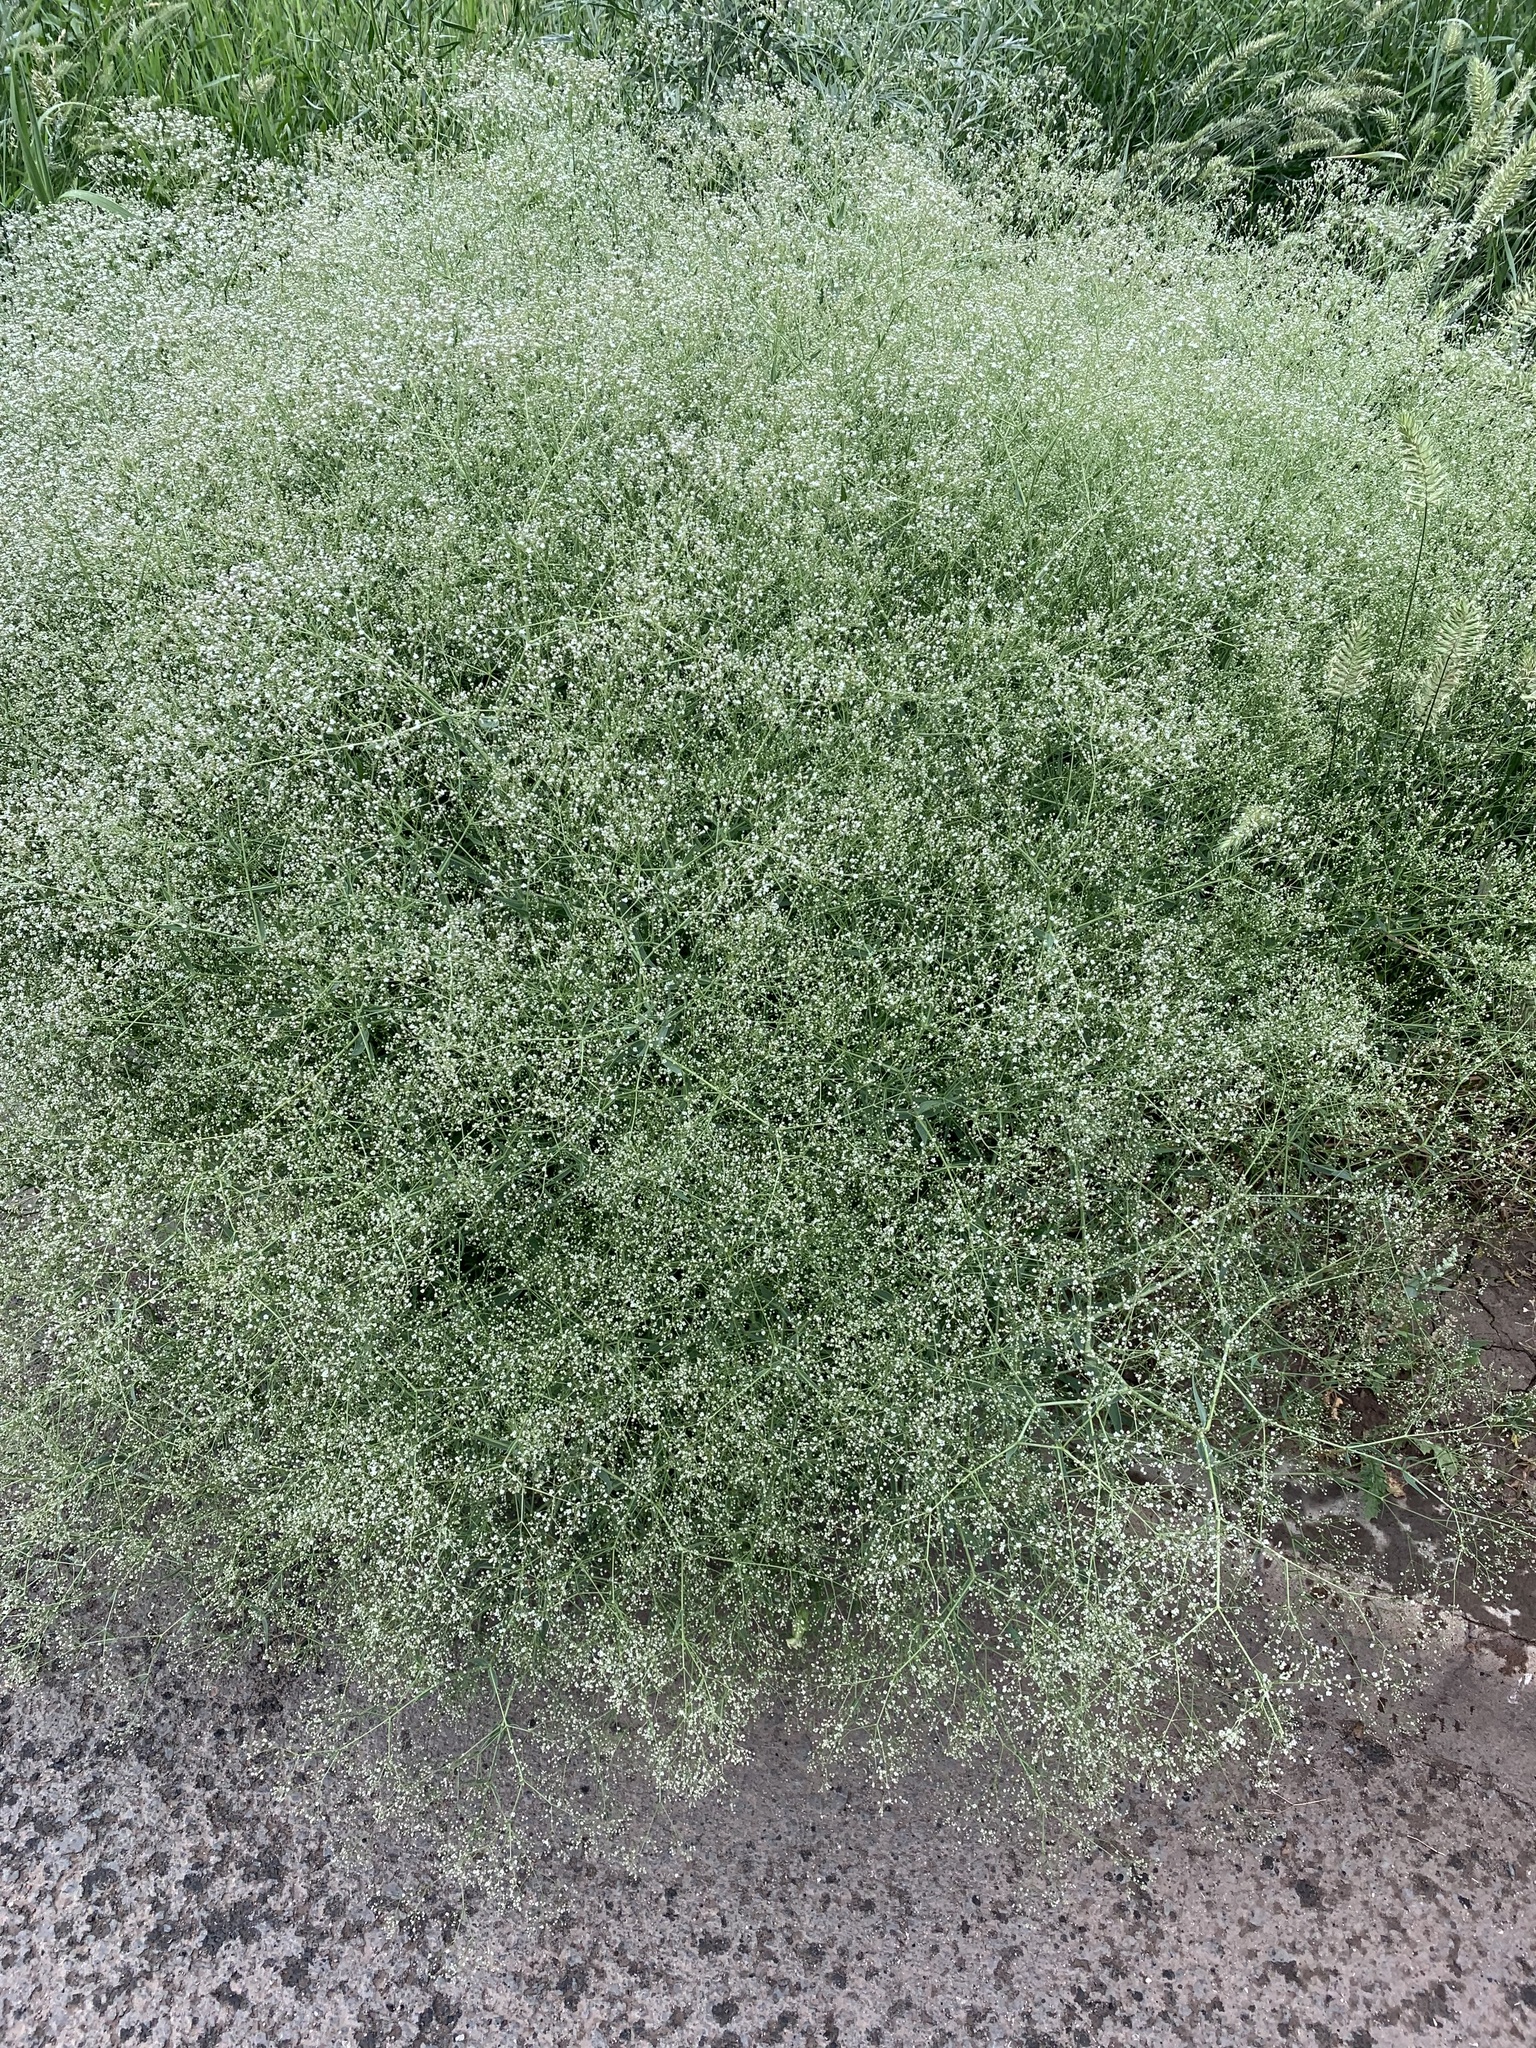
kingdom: Plantae
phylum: Tracheophyta
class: Magnoliopsida
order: Caryophyllales
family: Caryophyllaceae
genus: Gypsophila
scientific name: Gypsophila paniculata
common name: Baby's-breath
